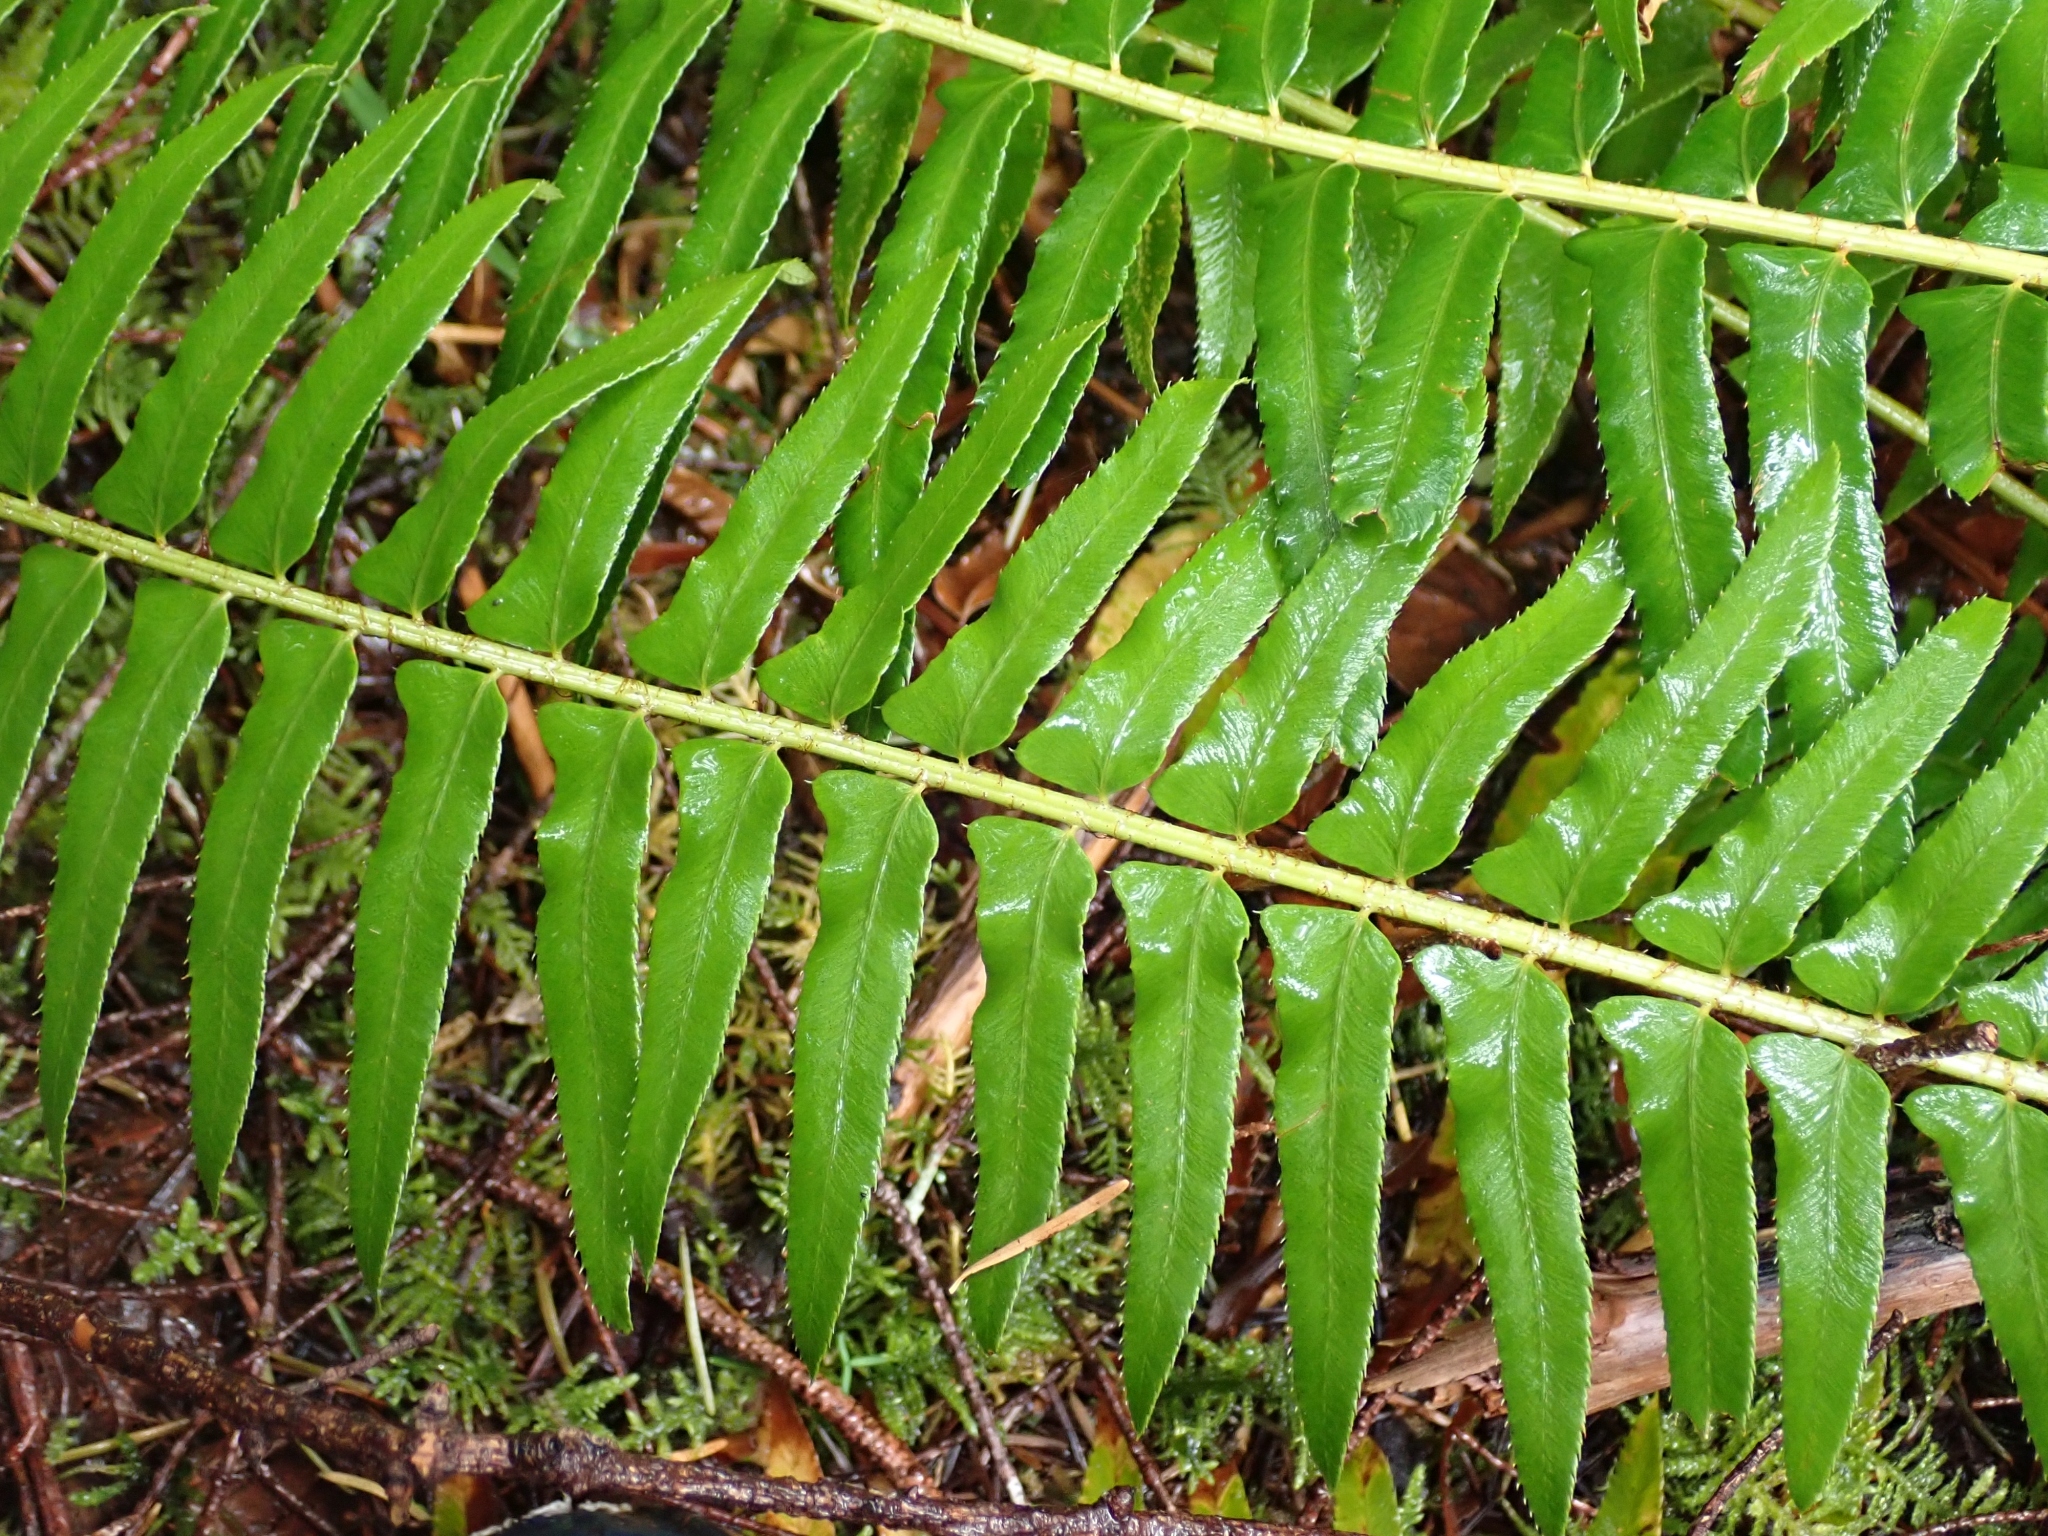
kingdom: Plantae
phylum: Tracheophyta
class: Polypodiopsida
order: Polypodiales
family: Dryopteridaceae
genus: Polystichum
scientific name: Polystichum munitum
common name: Western sword-fern
